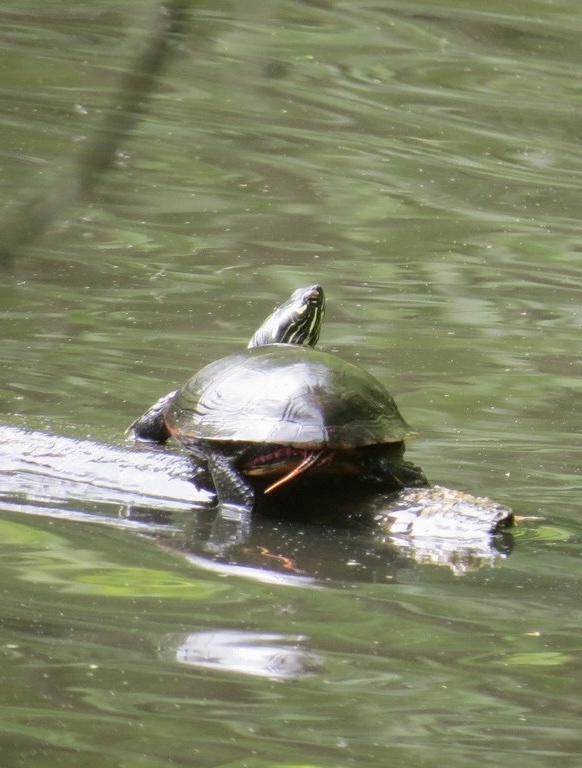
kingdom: Animalia
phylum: Chordata
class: Testudines
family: Emydidae
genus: Chrysemys
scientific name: Chrysemys picta
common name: Painted turtle
